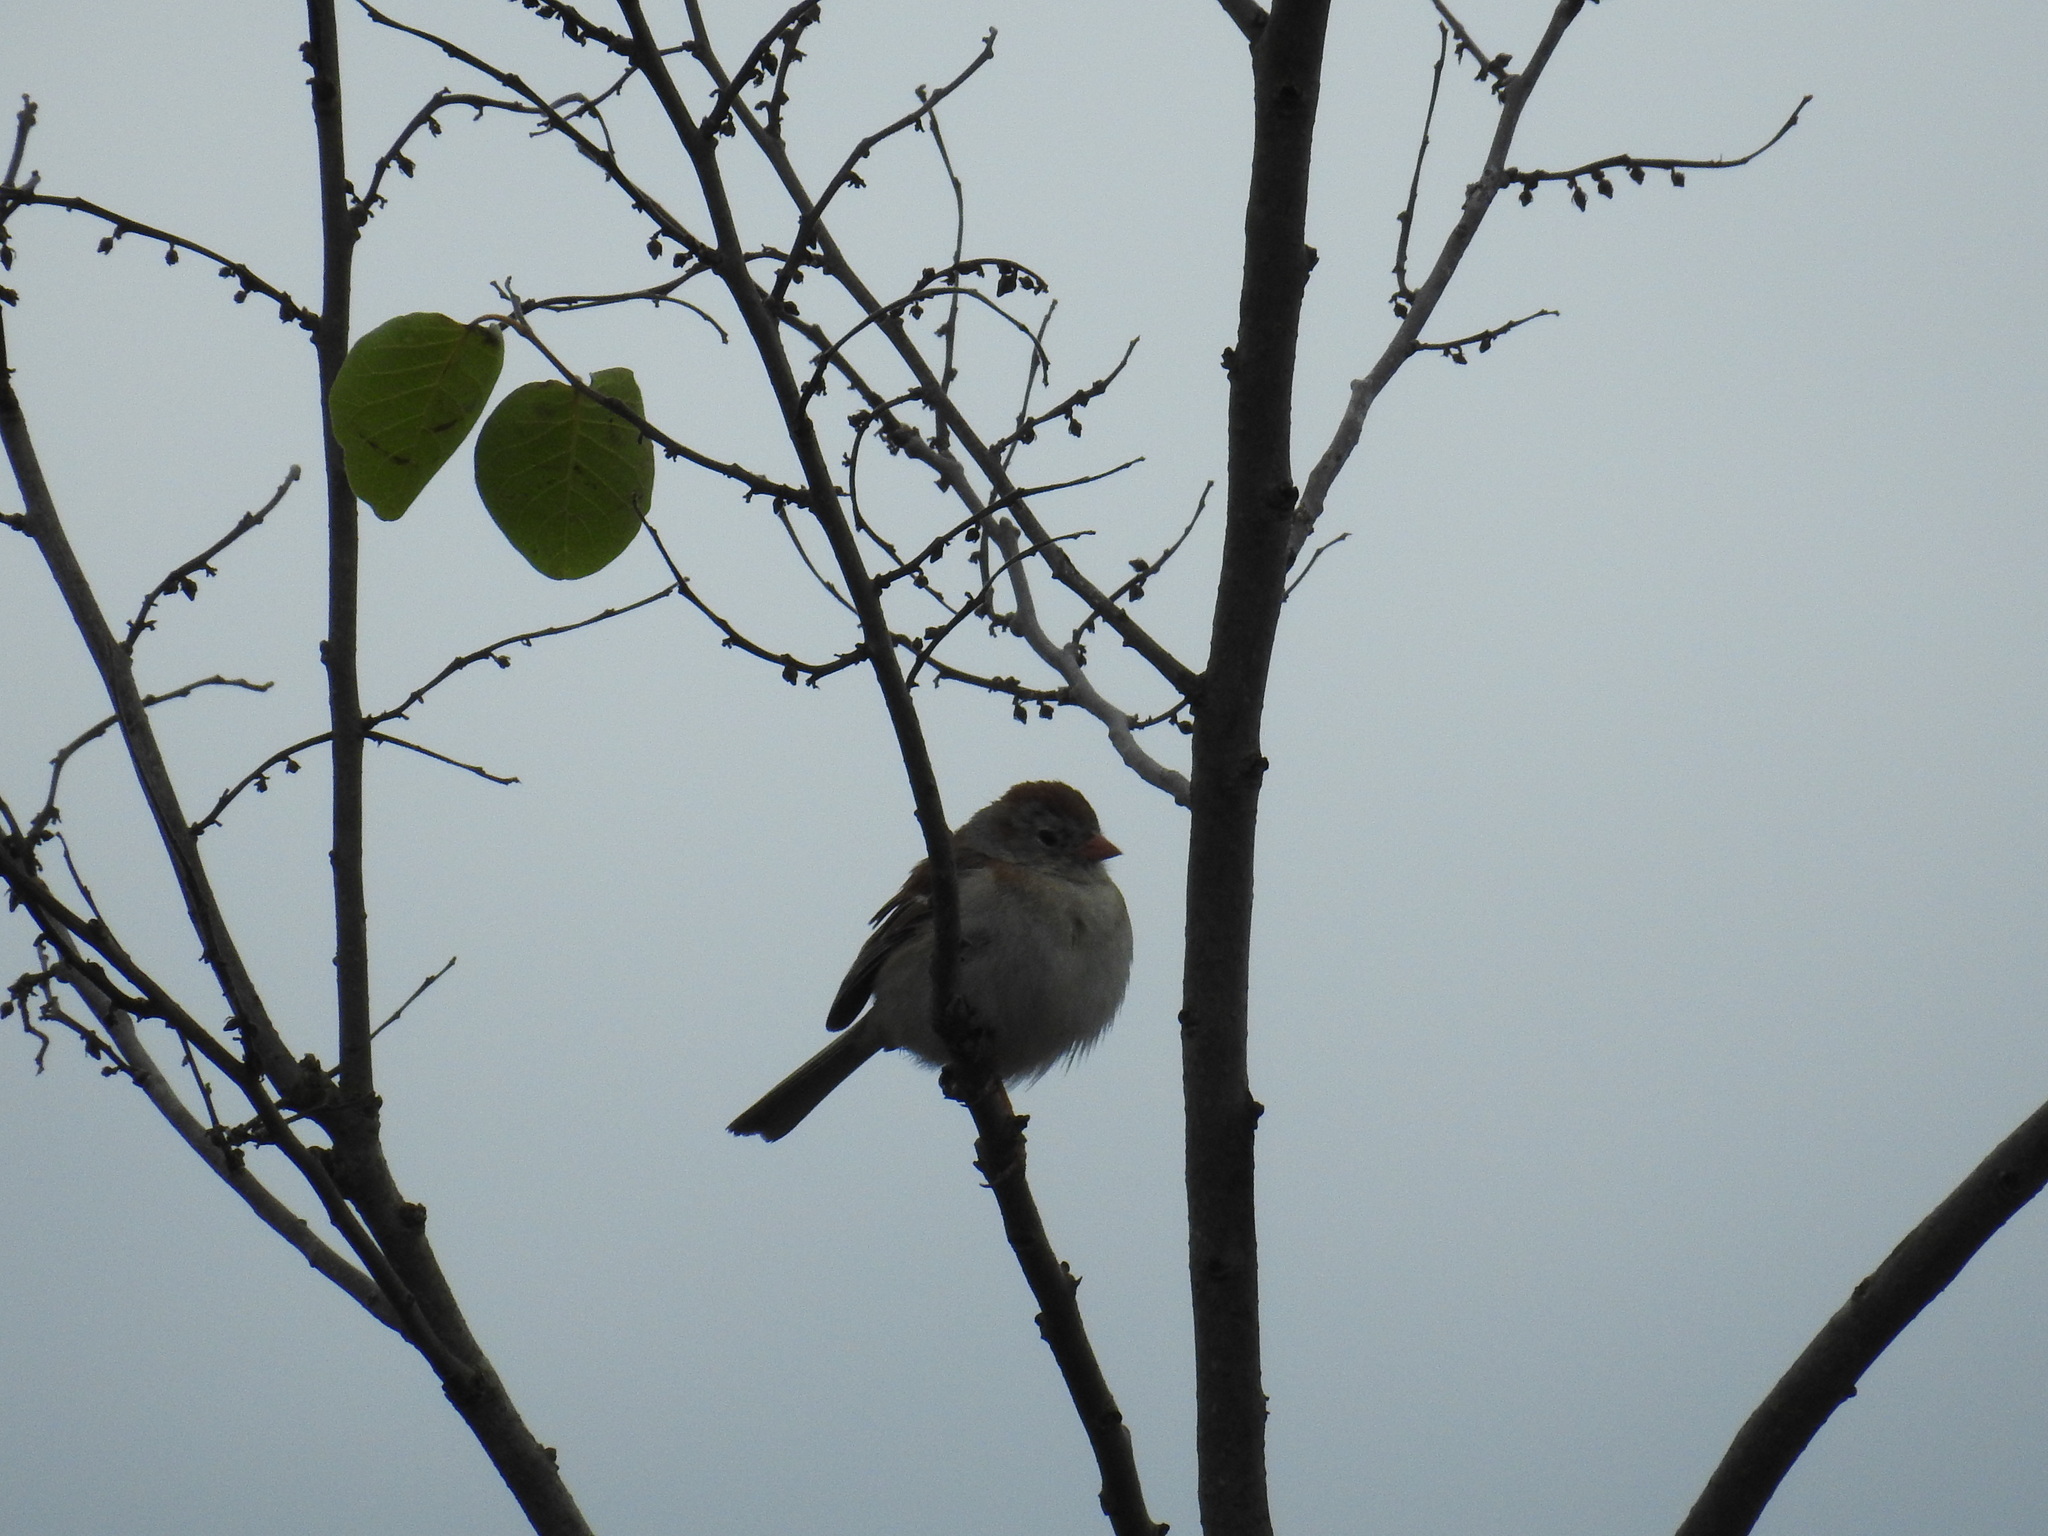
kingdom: Animalia
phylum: Chordata
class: Aves
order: Passeriformes
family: Passerellidae
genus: Spizella
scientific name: Spizella pusilla
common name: Field sparrow
